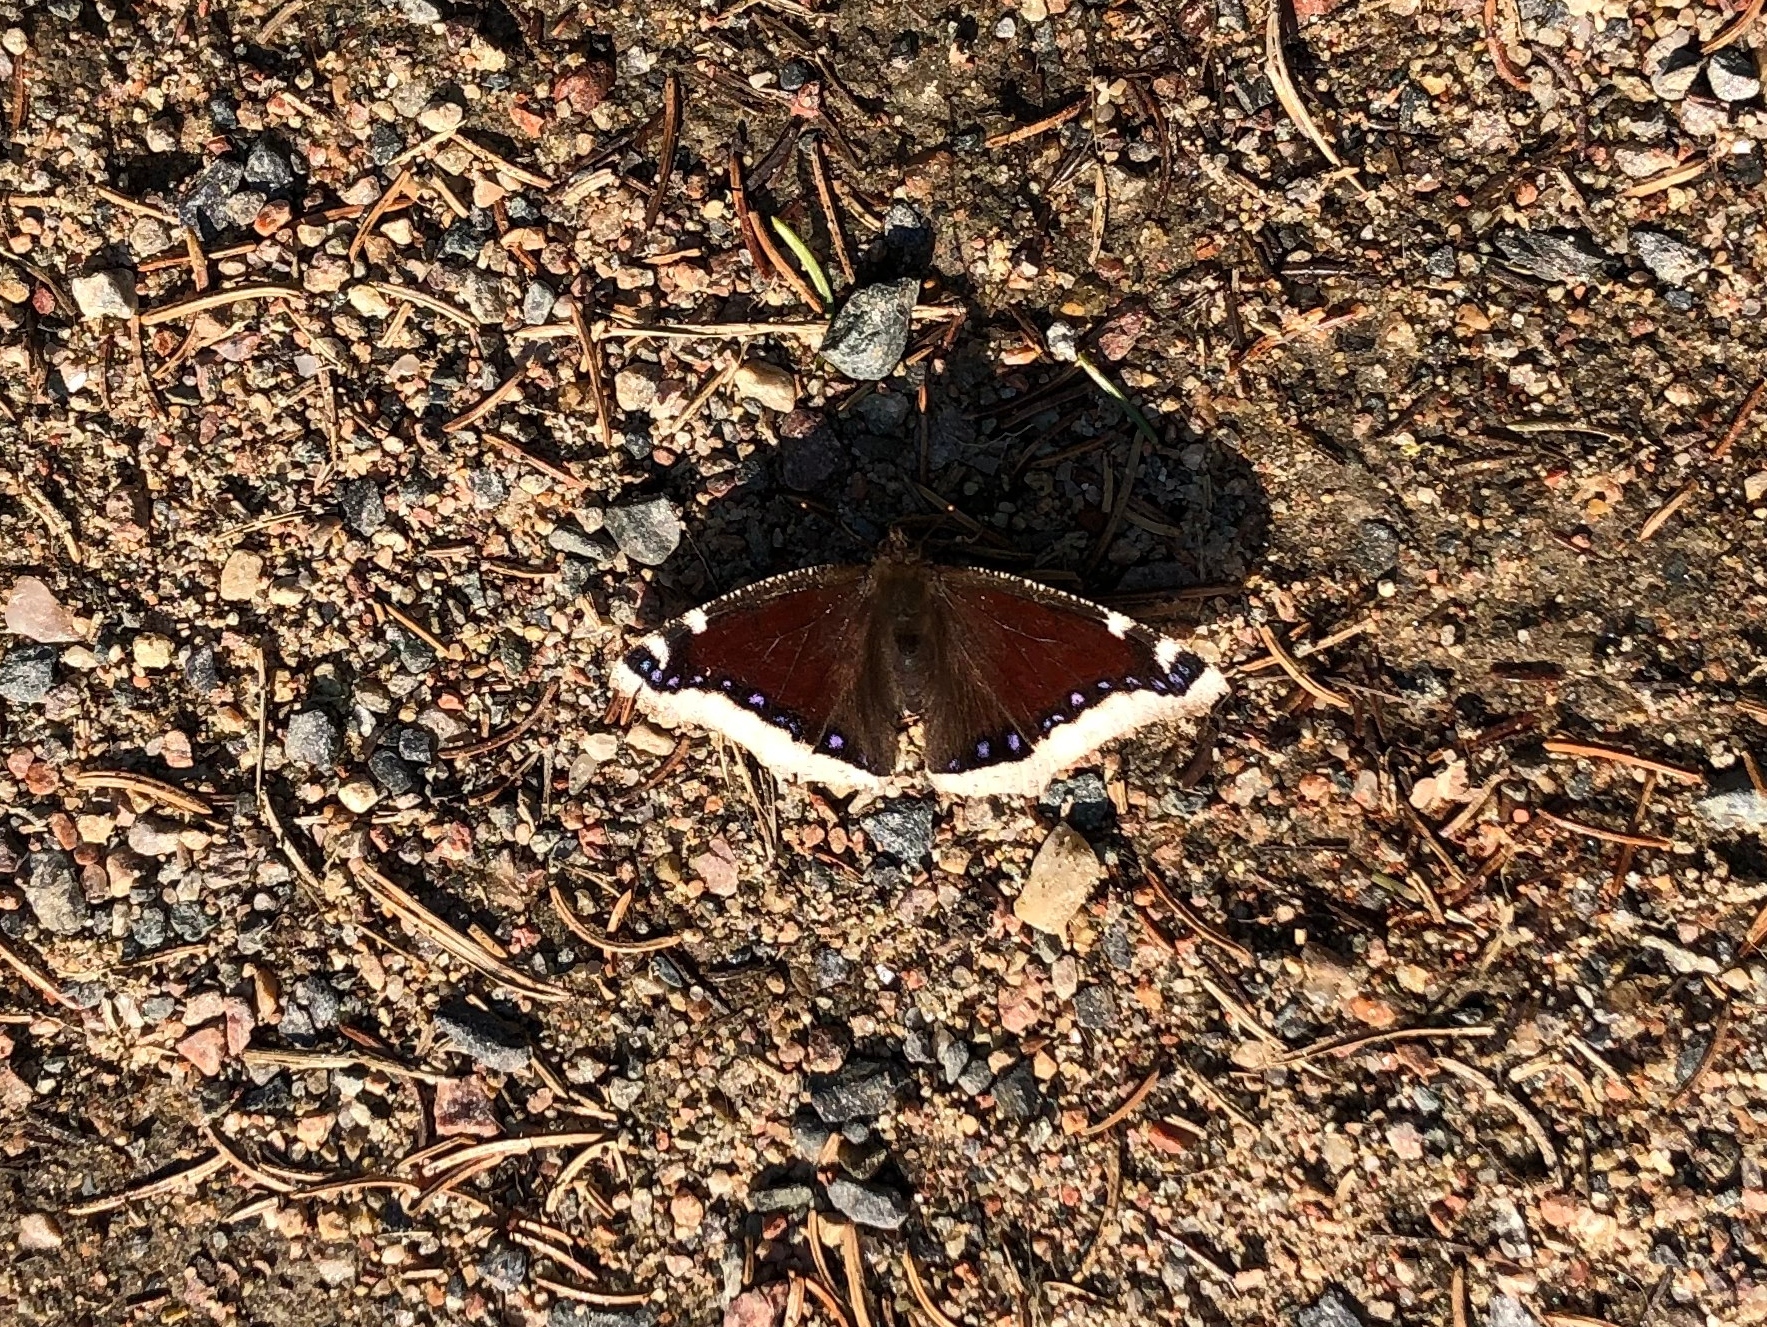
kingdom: Animalia
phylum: Arthropoda
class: Insecta
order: Lepidoptera
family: Nymphalidae
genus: Nymphalis
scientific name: Nymphalis antiopa
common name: Camberwell beauty
